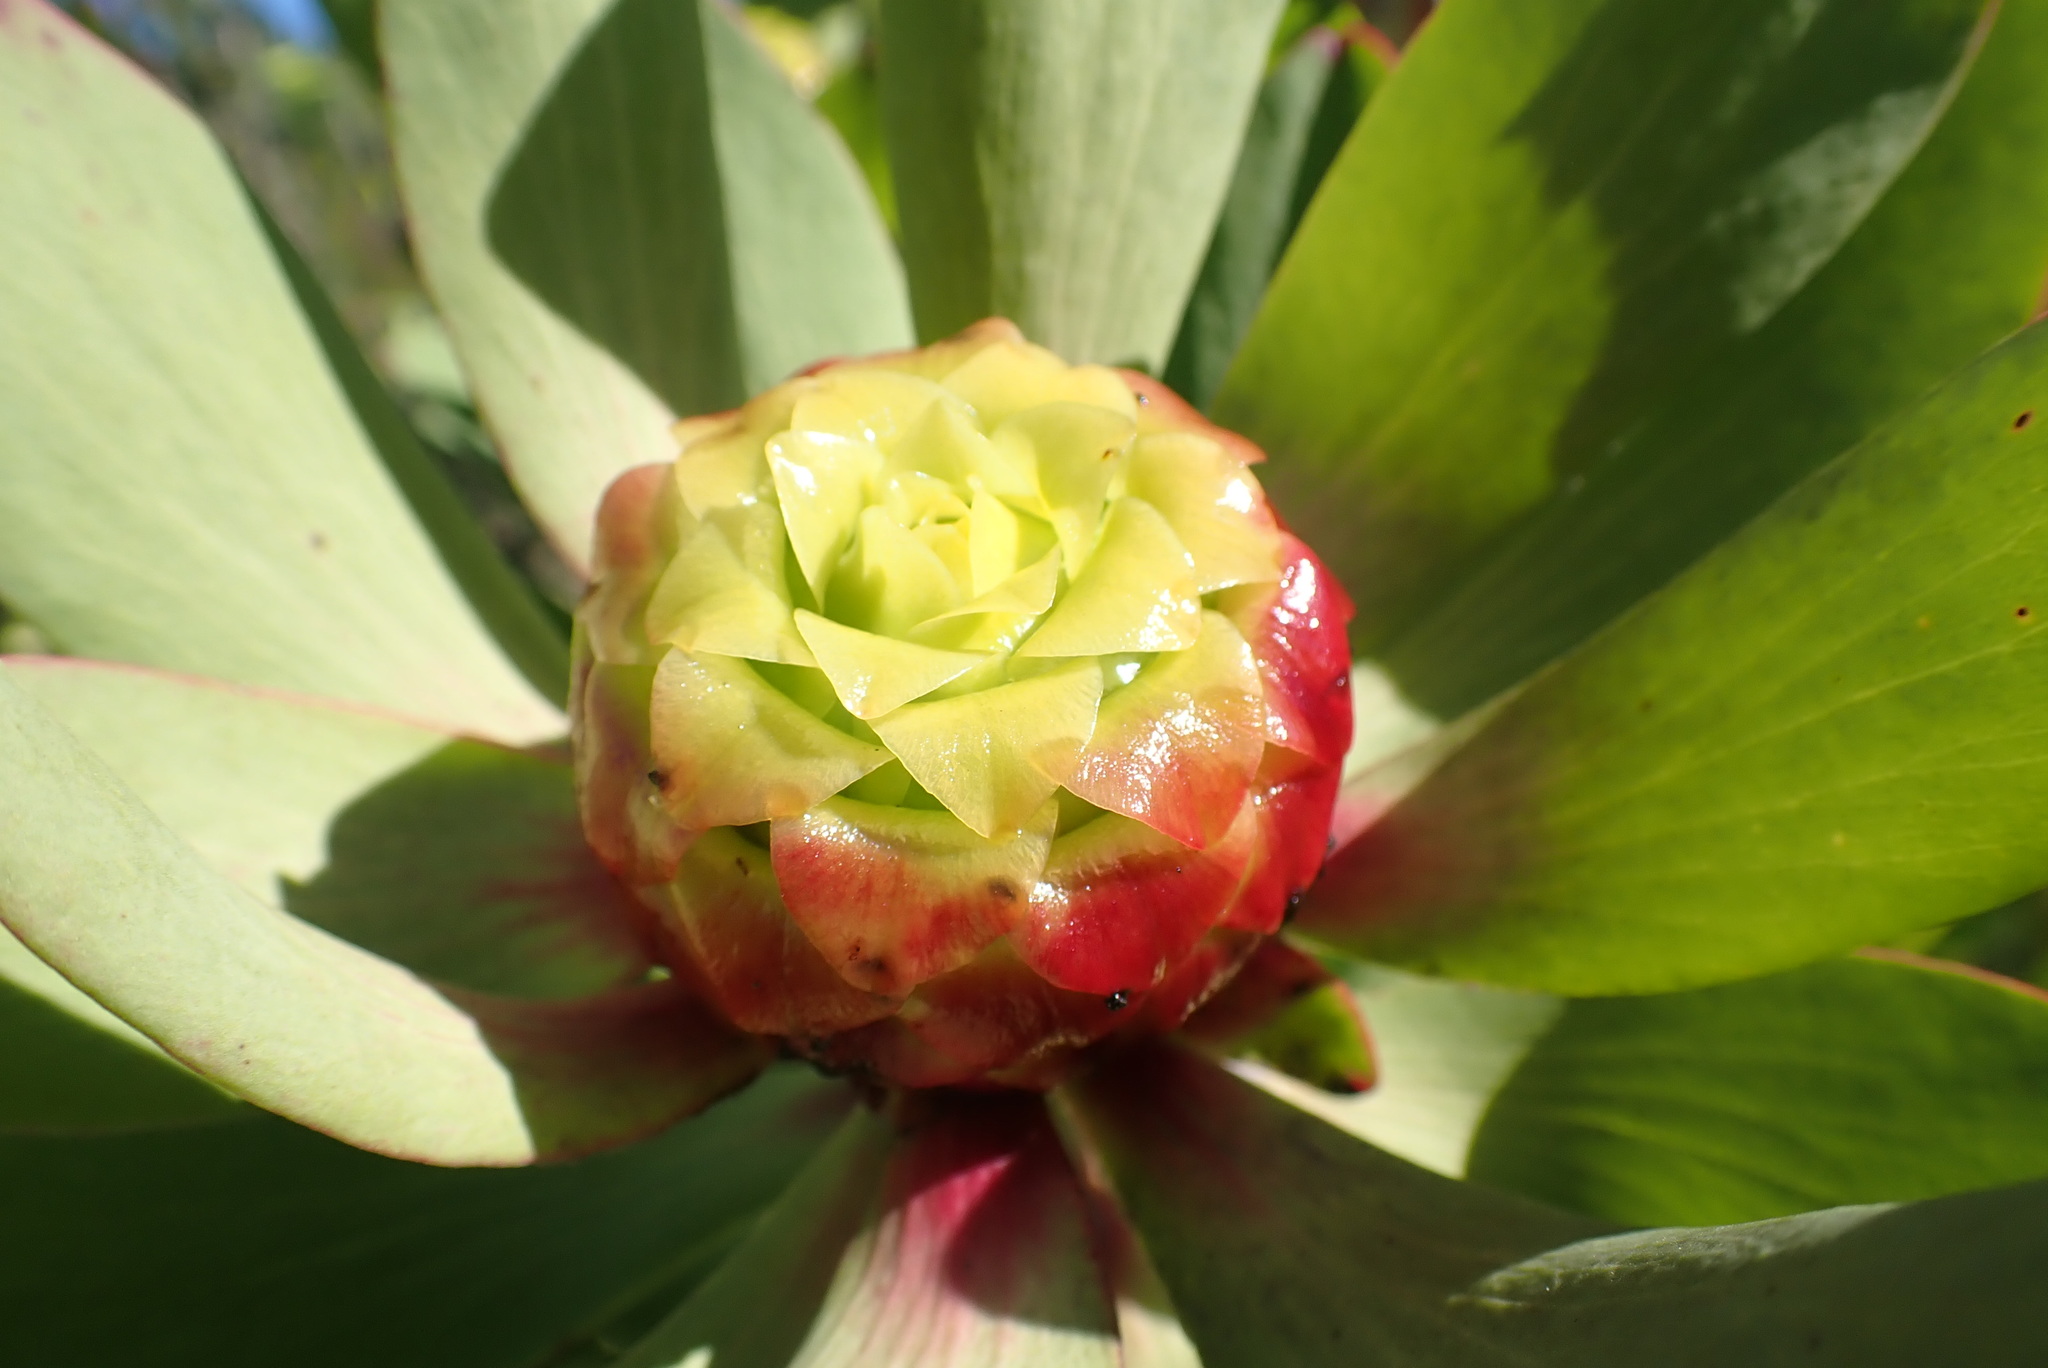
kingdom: Plantae
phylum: Tracheophyta
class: Magnoliopsida
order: Proteales
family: Proteaceae
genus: Leucadendron
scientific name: Leucadendron pubibracteolatum
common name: Purple-leaf conebush
